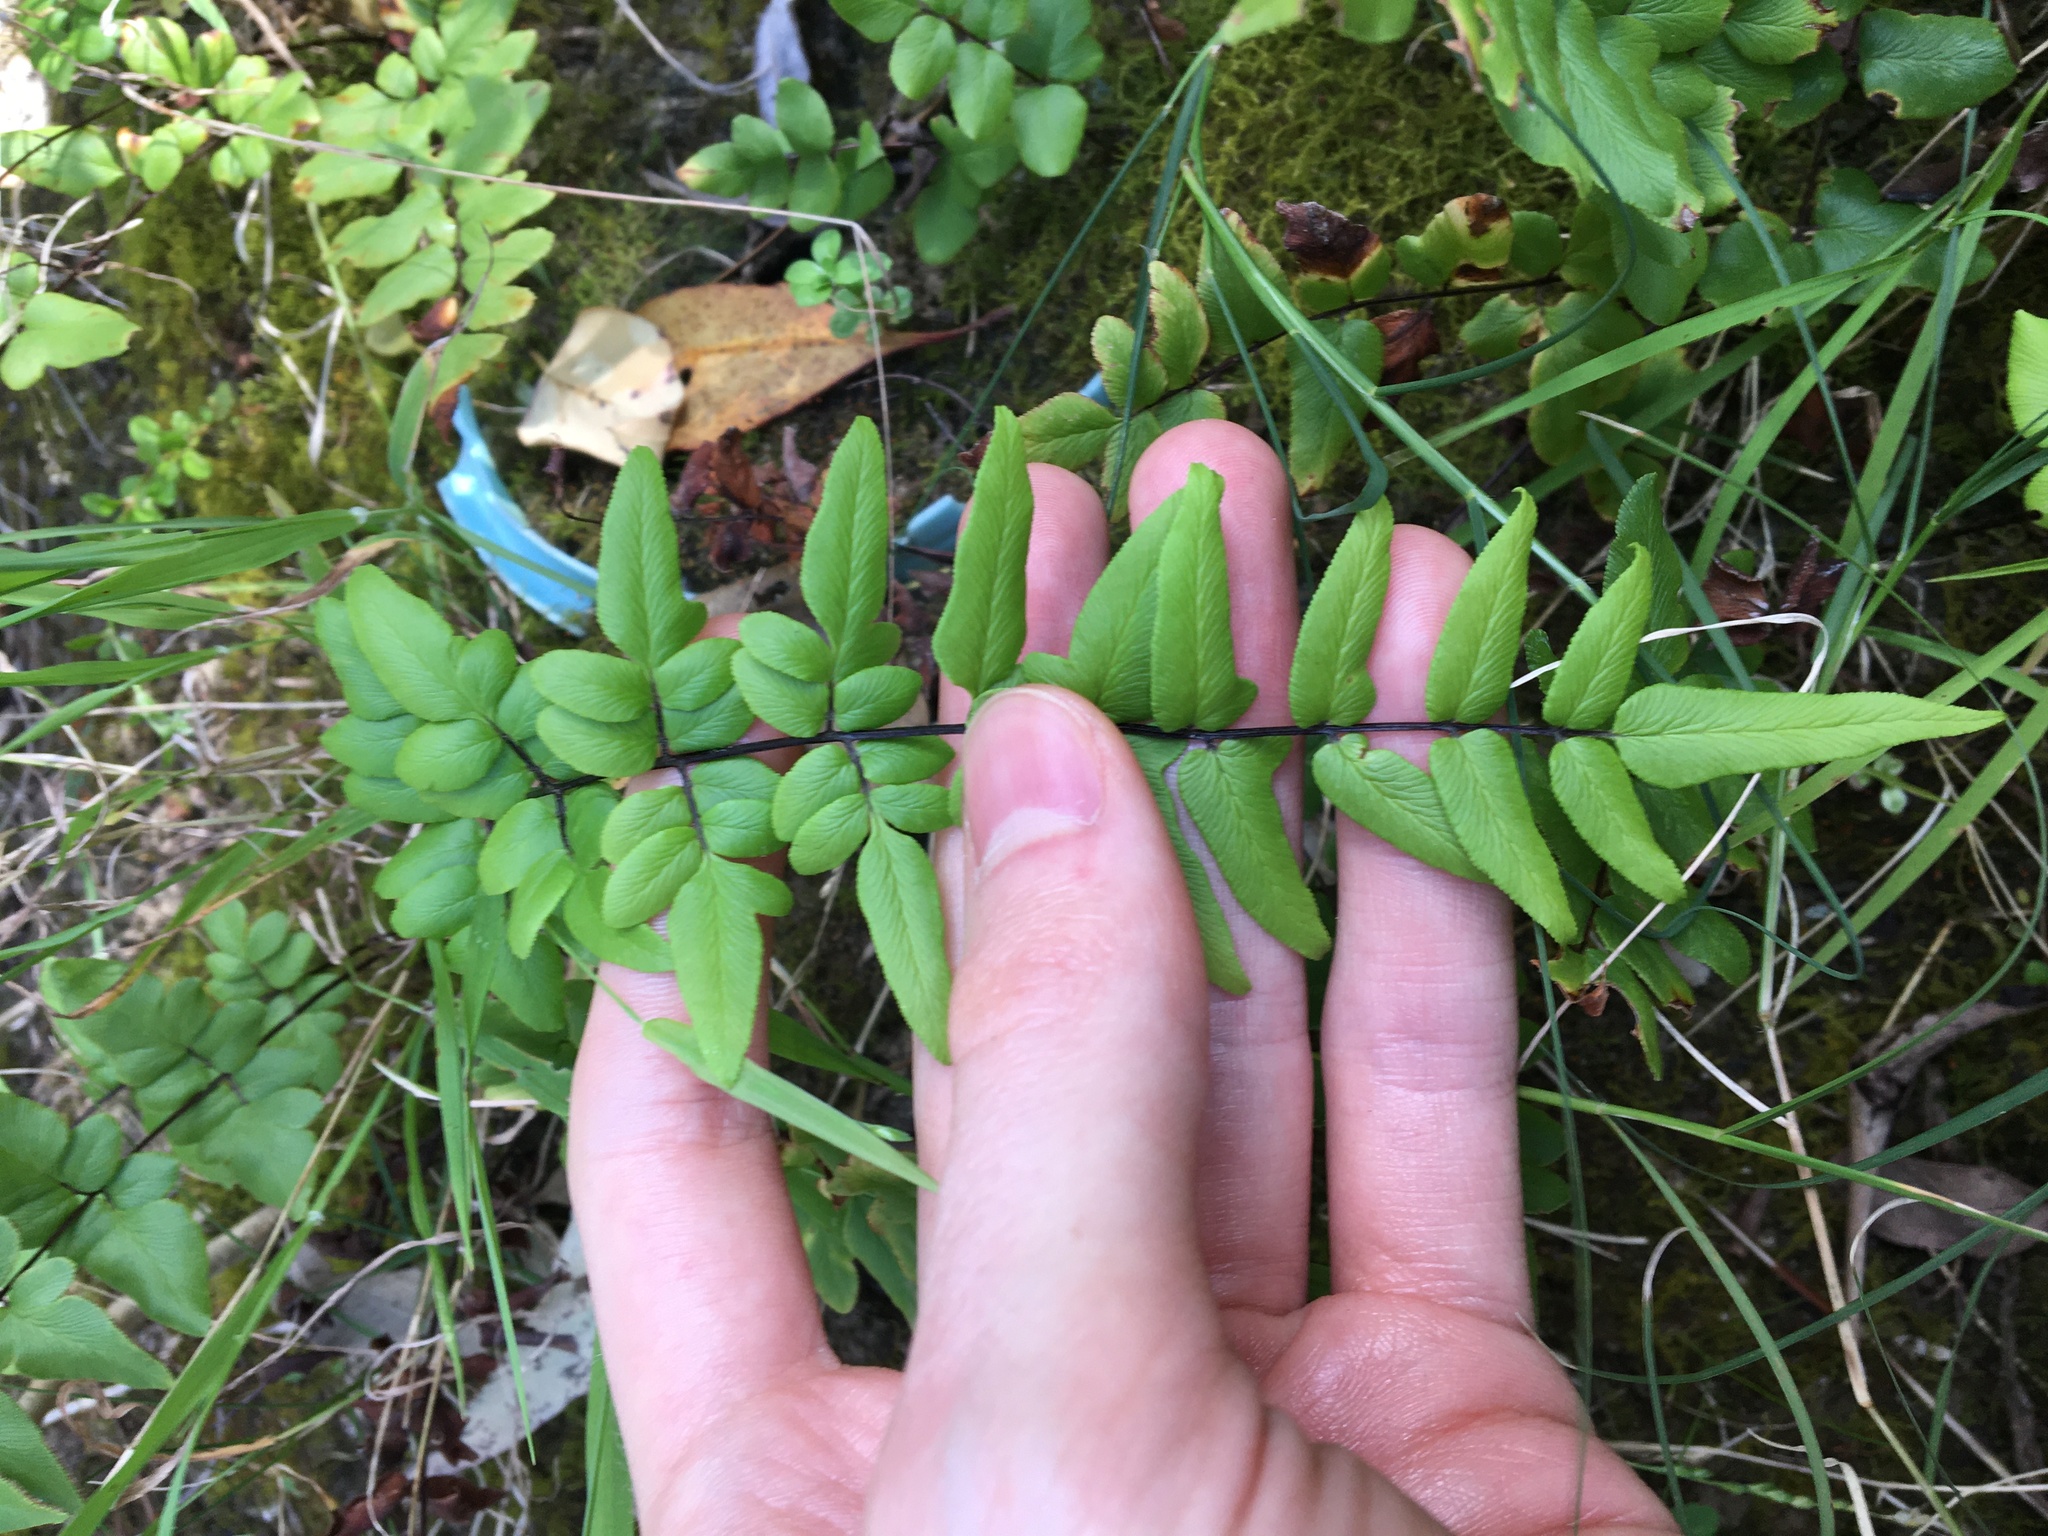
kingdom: Plantae
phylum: Tracheophyta
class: Polypodiopsida
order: Polypodiales
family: Pteridaceae
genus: Cheilanthes
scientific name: Cheilanthes viridis
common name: Green cliffbrake
